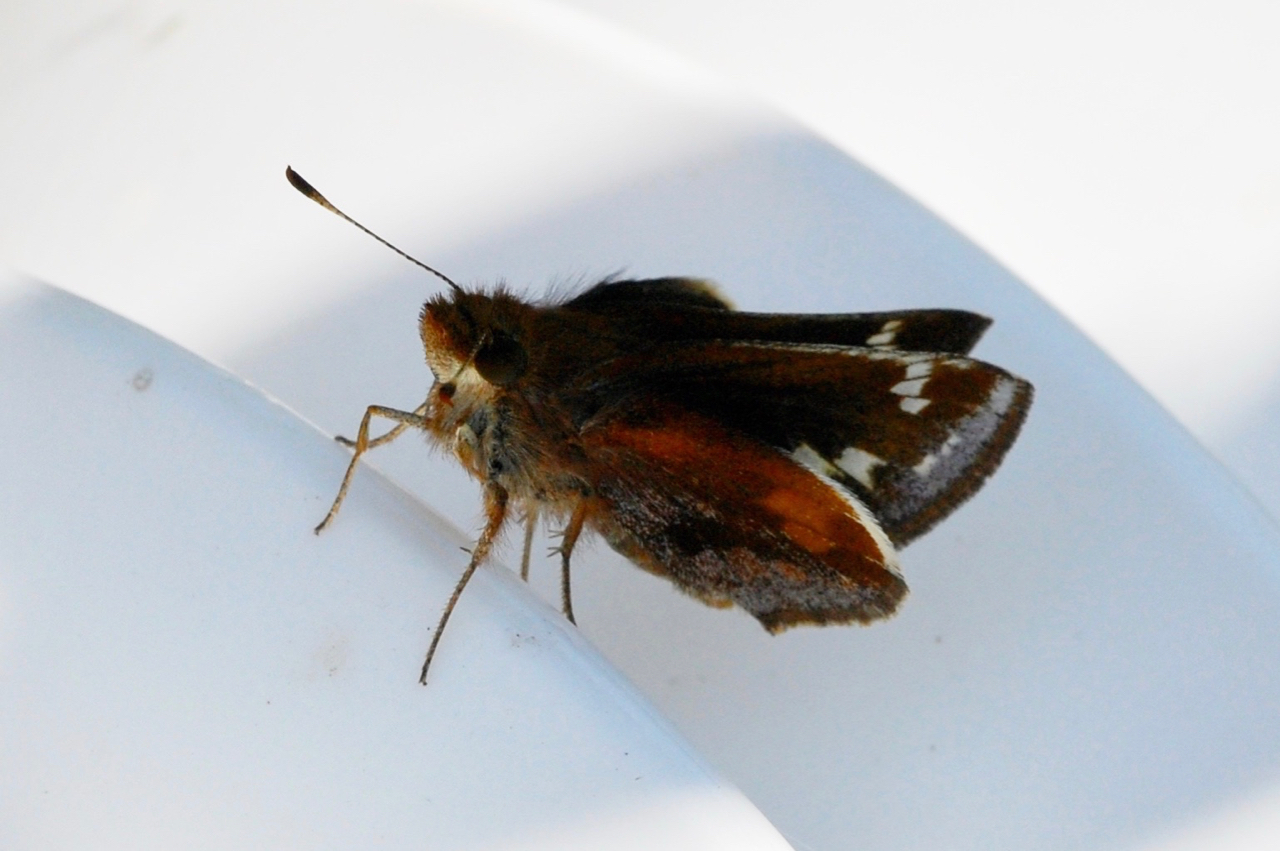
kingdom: Animalia
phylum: Arthropoda
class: Insecta
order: Lepidoptera
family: Hesperiidae
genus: Lon
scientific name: Lon zabulon
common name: Zabulon skipper
